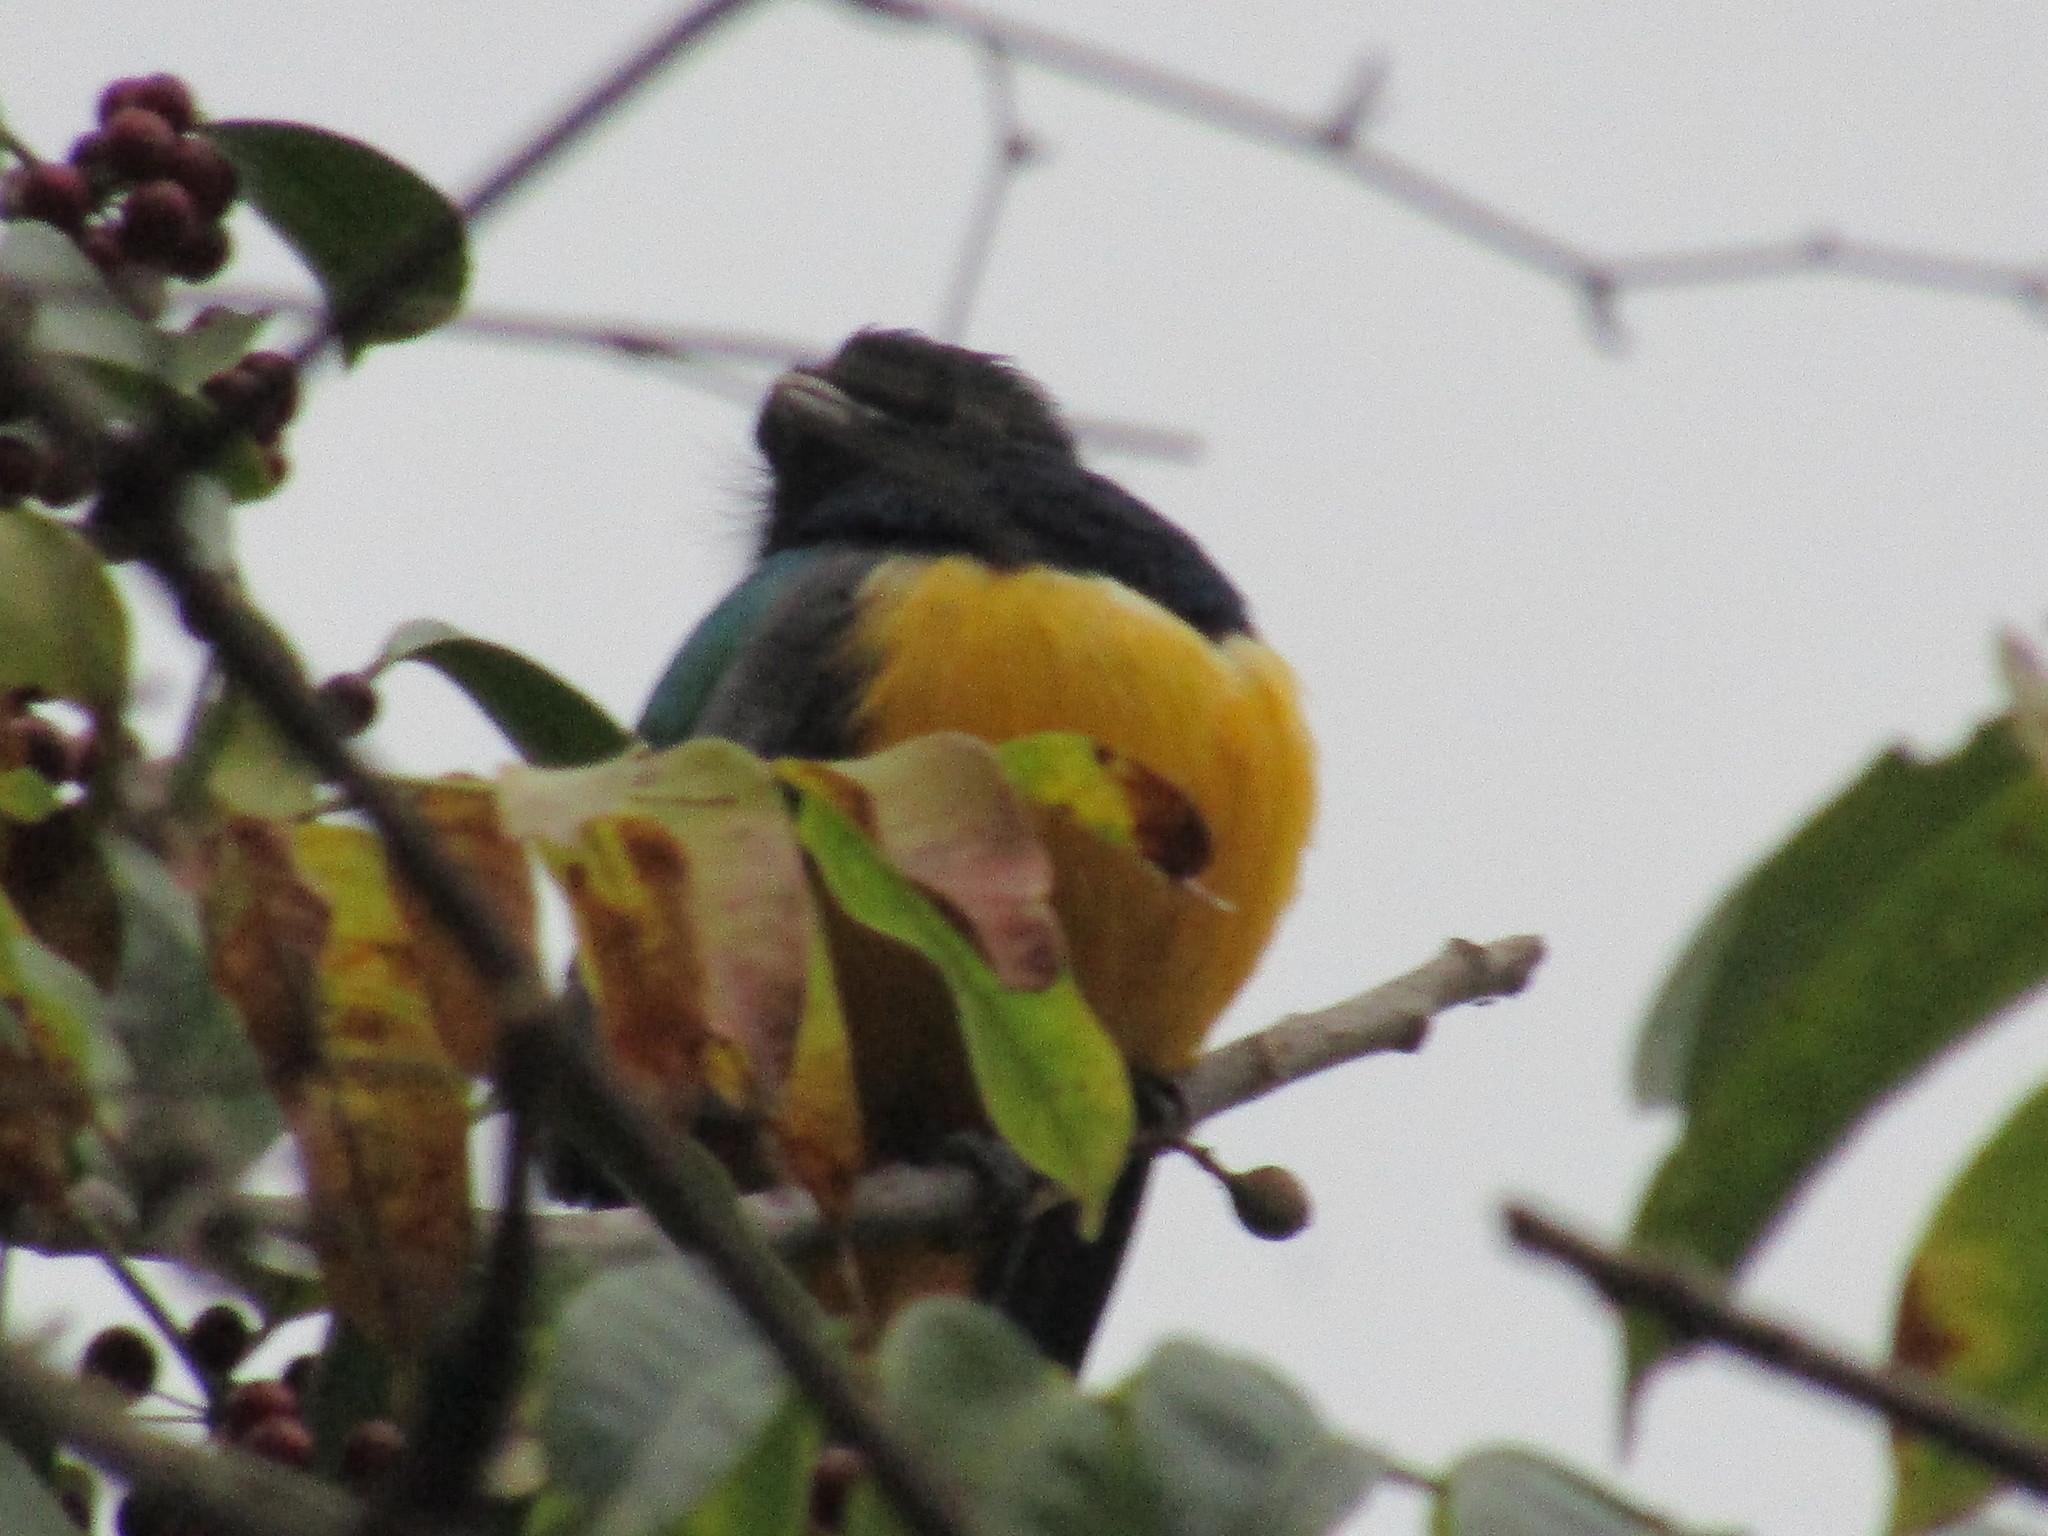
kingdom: Animalia
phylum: Chordata
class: Aves
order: Trogoniformes
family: Trogonidae
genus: Trogon
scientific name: Trogon caligatus
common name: Gartered trogon
